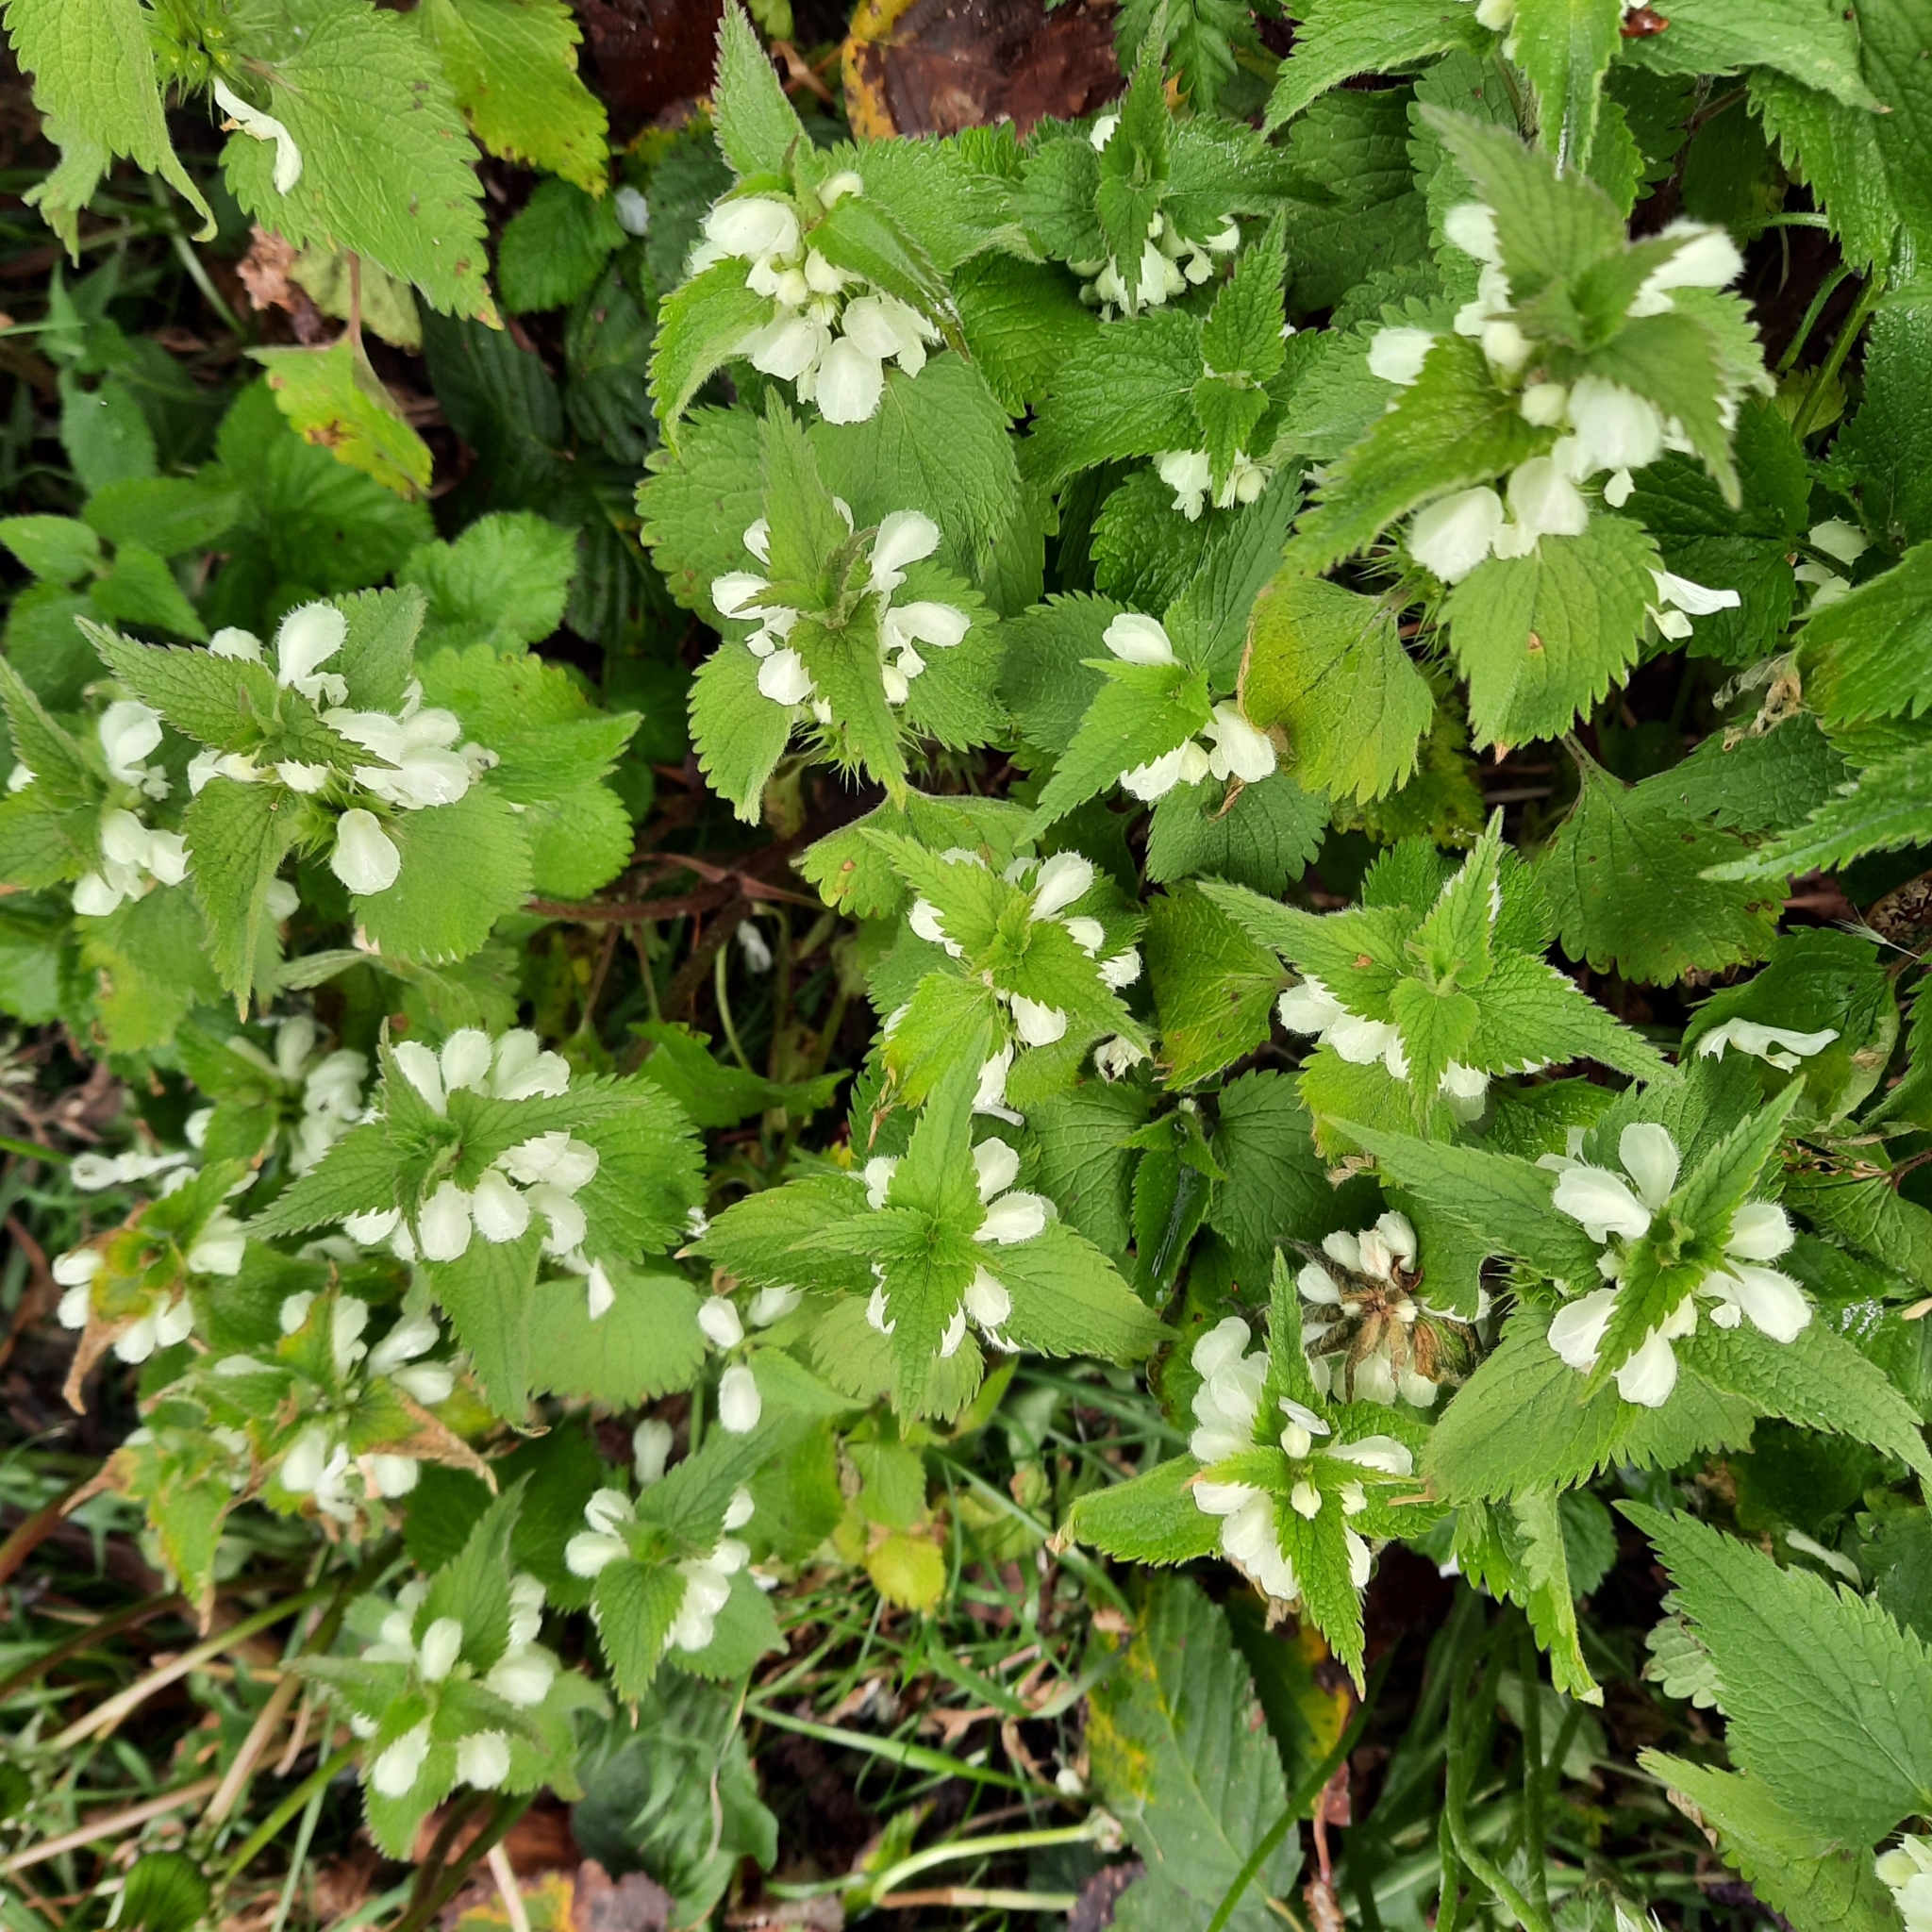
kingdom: Plantae
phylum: Tracheophyta
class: Magnoliopsida
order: Lamiales
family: Lamiaceae
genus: Lamium
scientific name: Lamium album
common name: White dead-nettle
